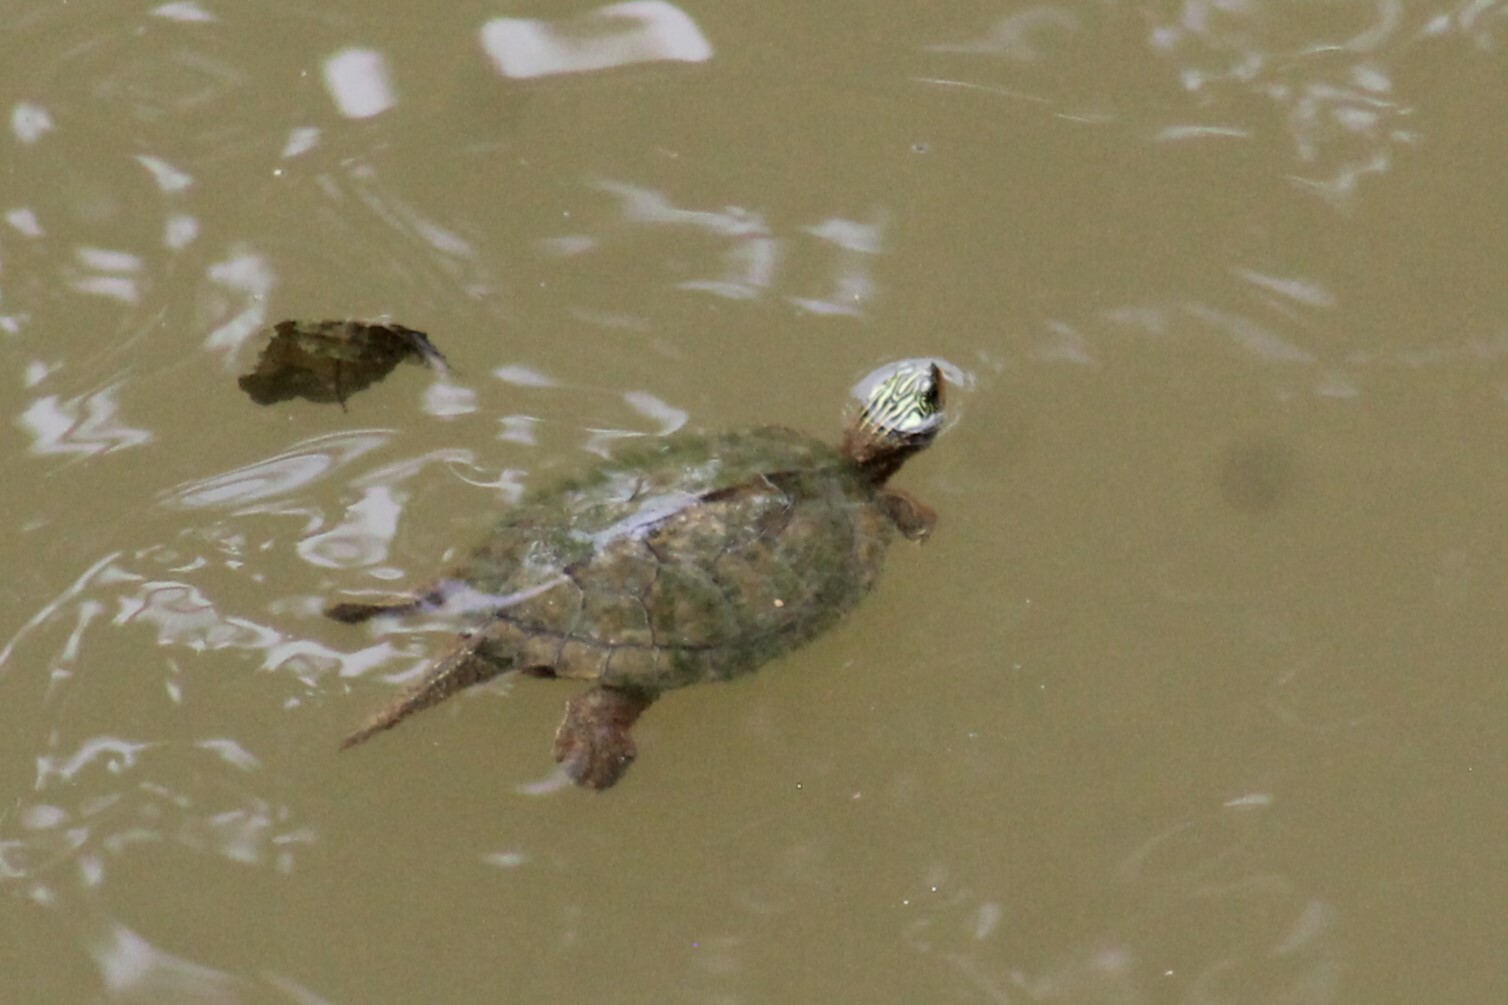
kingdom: Animalia
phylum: Chordata
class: Testudines
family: Emydidae
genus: Graptemys
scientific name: Graptemys geographica
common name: Common map turtle
